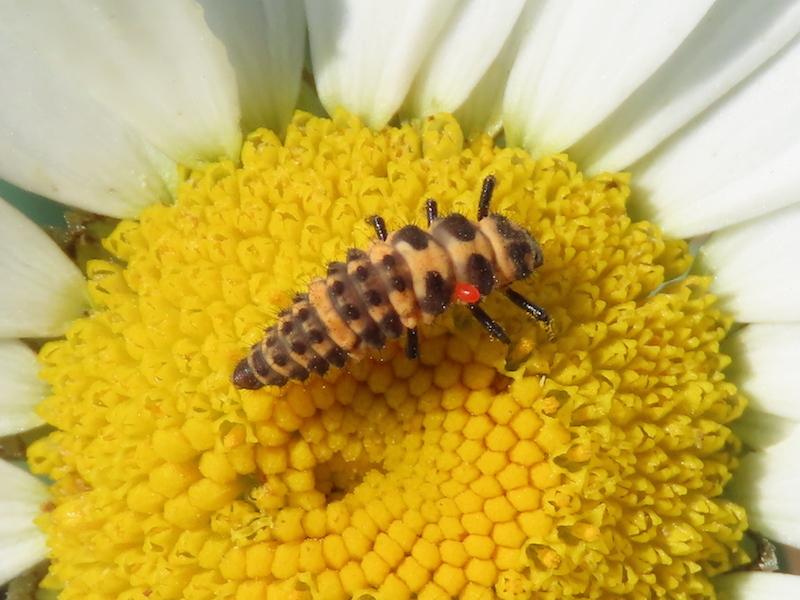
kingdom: Animalia
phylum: Arthropoda
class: Insecta
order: Coleoptera
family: Coccinellidae
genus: Coleomegilla
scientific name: Coleomegilla maculata
